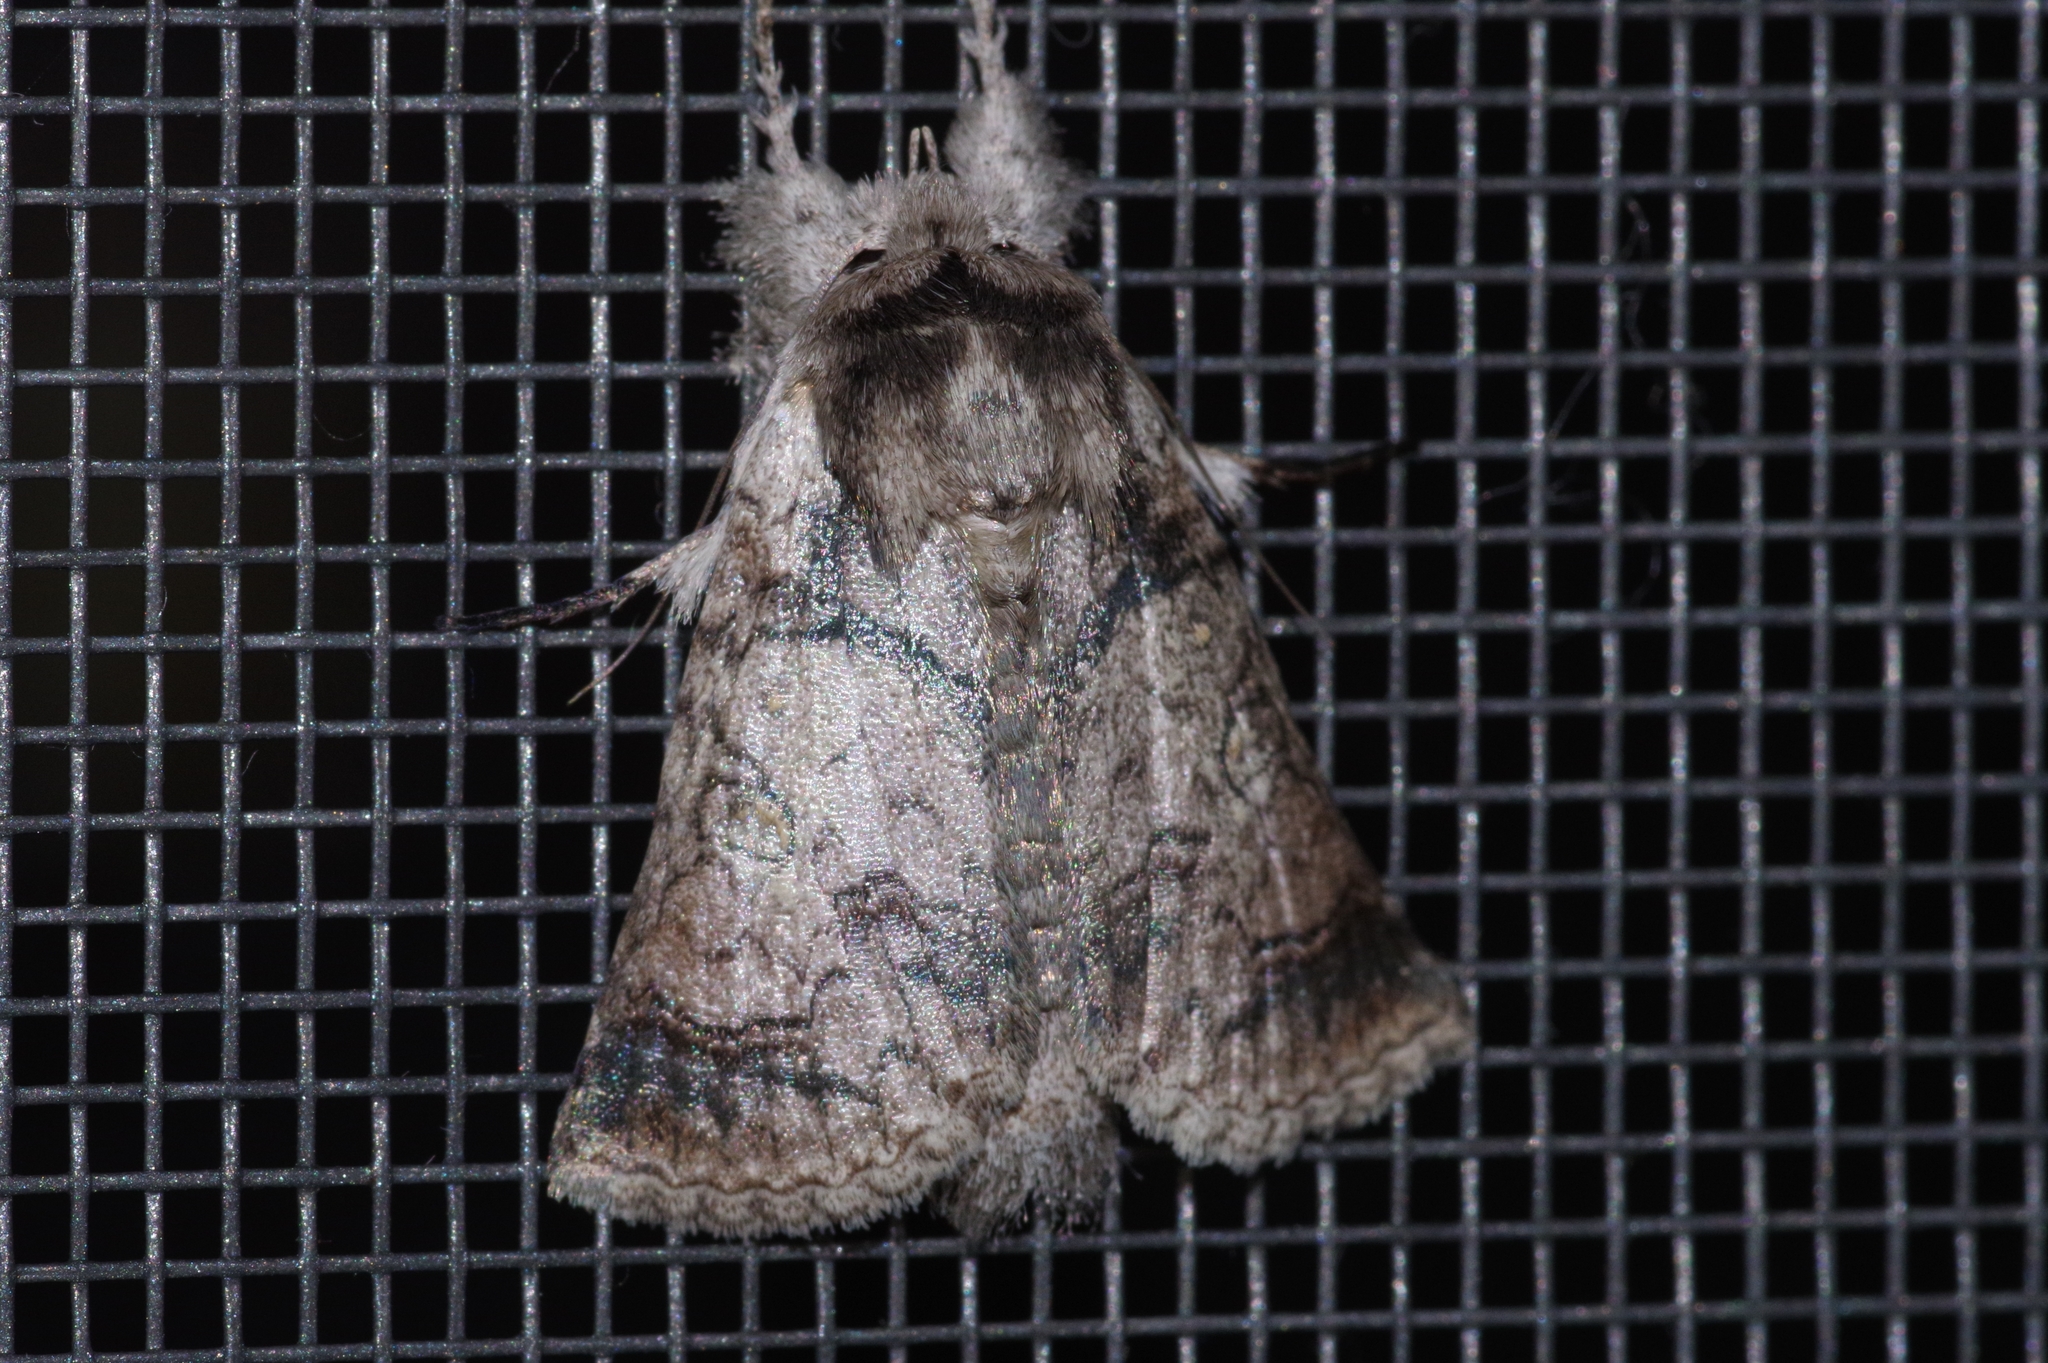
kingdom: Animalia
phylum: Arthropoda
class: Insecta
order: Lepidoptera
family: Nolidae
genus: Macrobarasa
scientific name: Macrobarasa xantholopha
